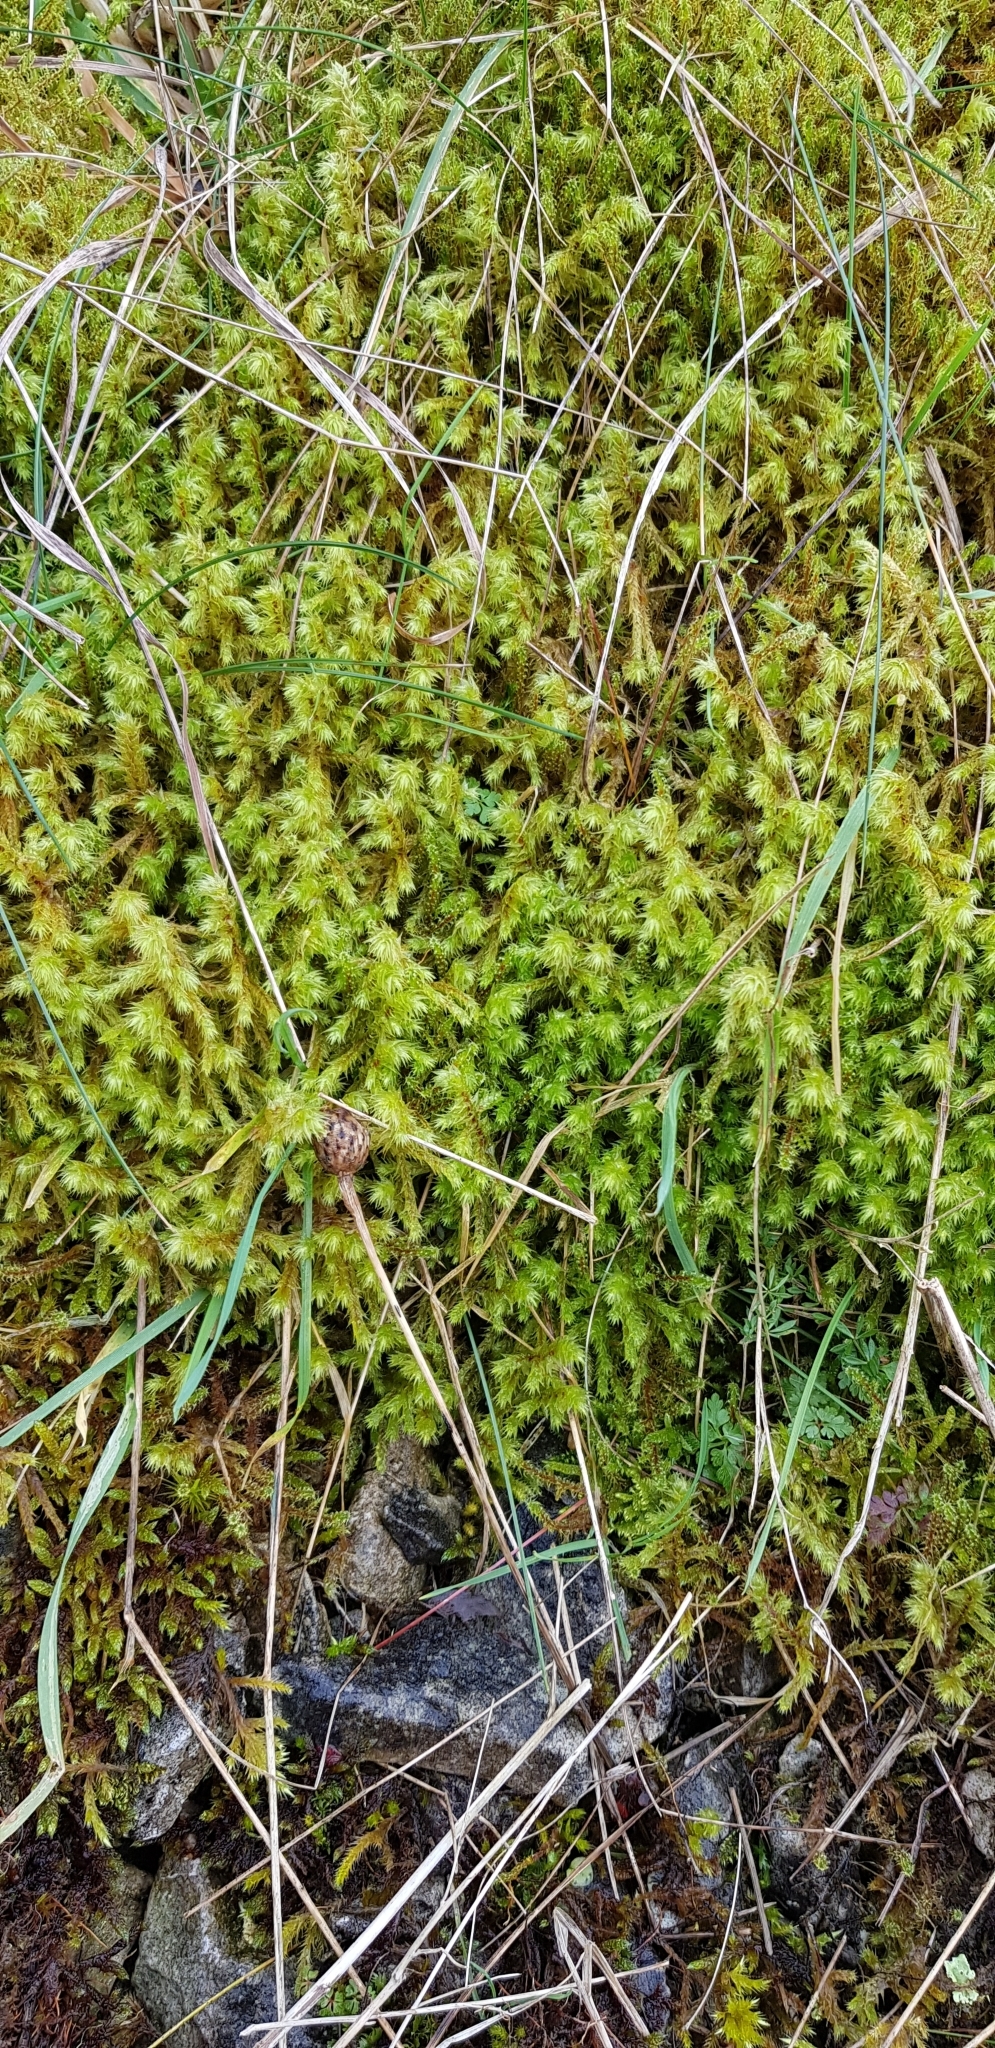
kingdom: Plantae
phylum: Bryophyta
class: Bryopsida
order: Hypnales
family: Hylocomiaceae
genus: Hylocomiadelphus
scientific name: Hylocomiadelphus triquetrus
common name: Rough goose neck moss
